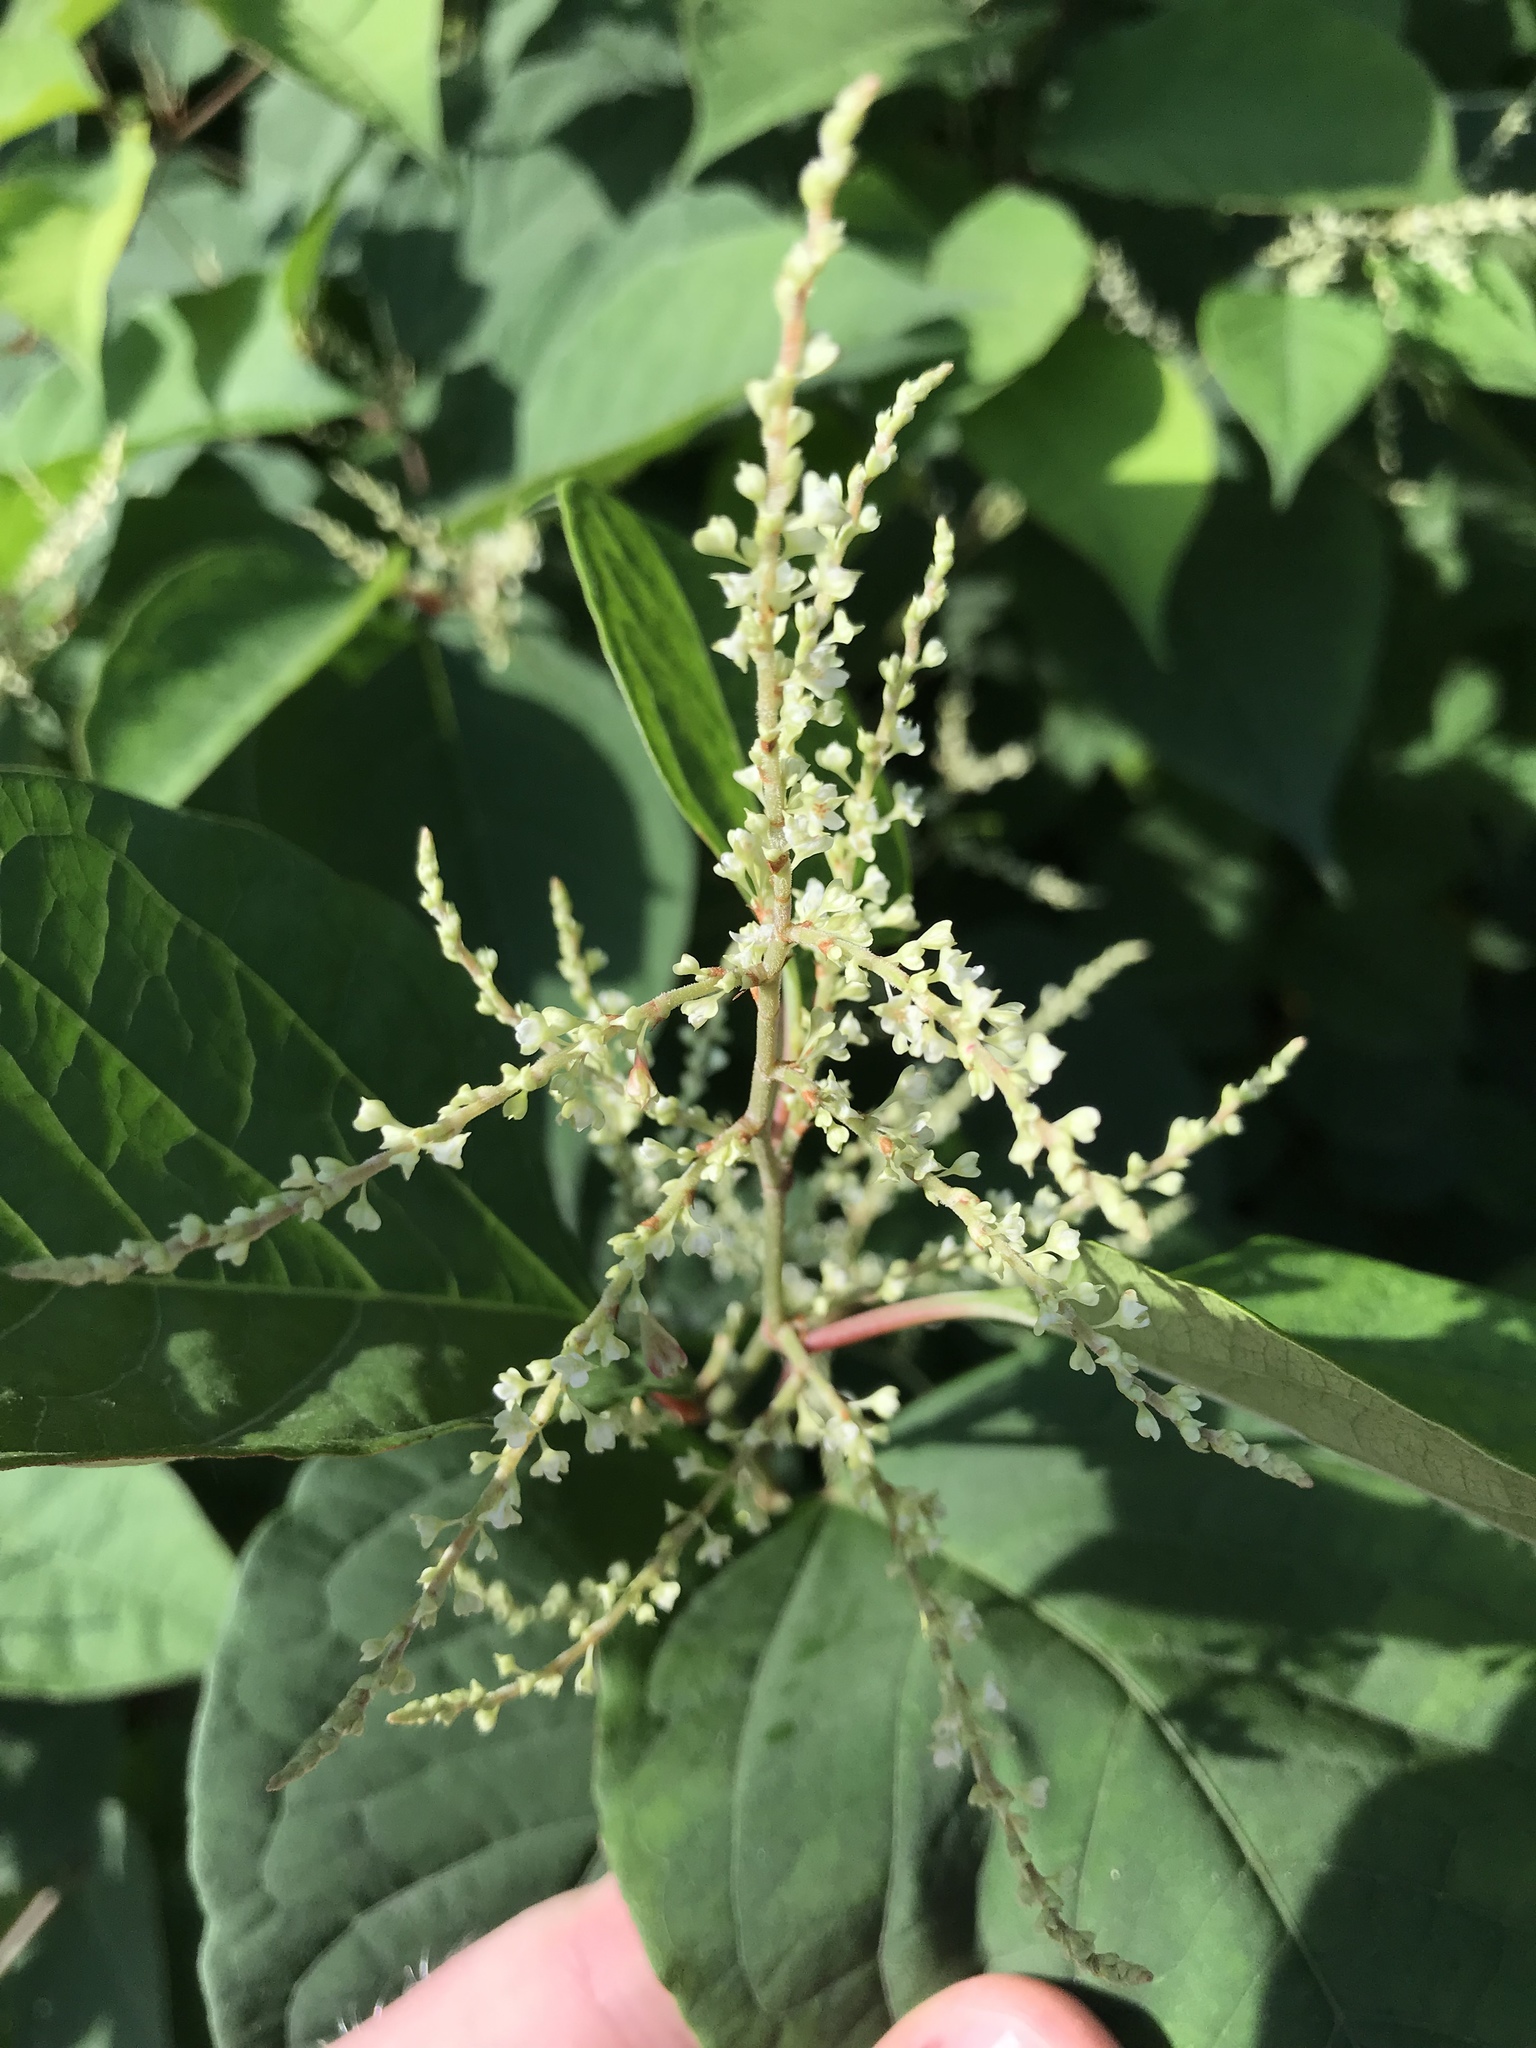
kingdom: Plantae
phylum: Tracheophyta
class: Magnoliopsida
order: Caryophyllales
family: Polygonaceae
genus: Reynoutria
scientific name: Reynoutria japonica
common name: Japanese knotweed
